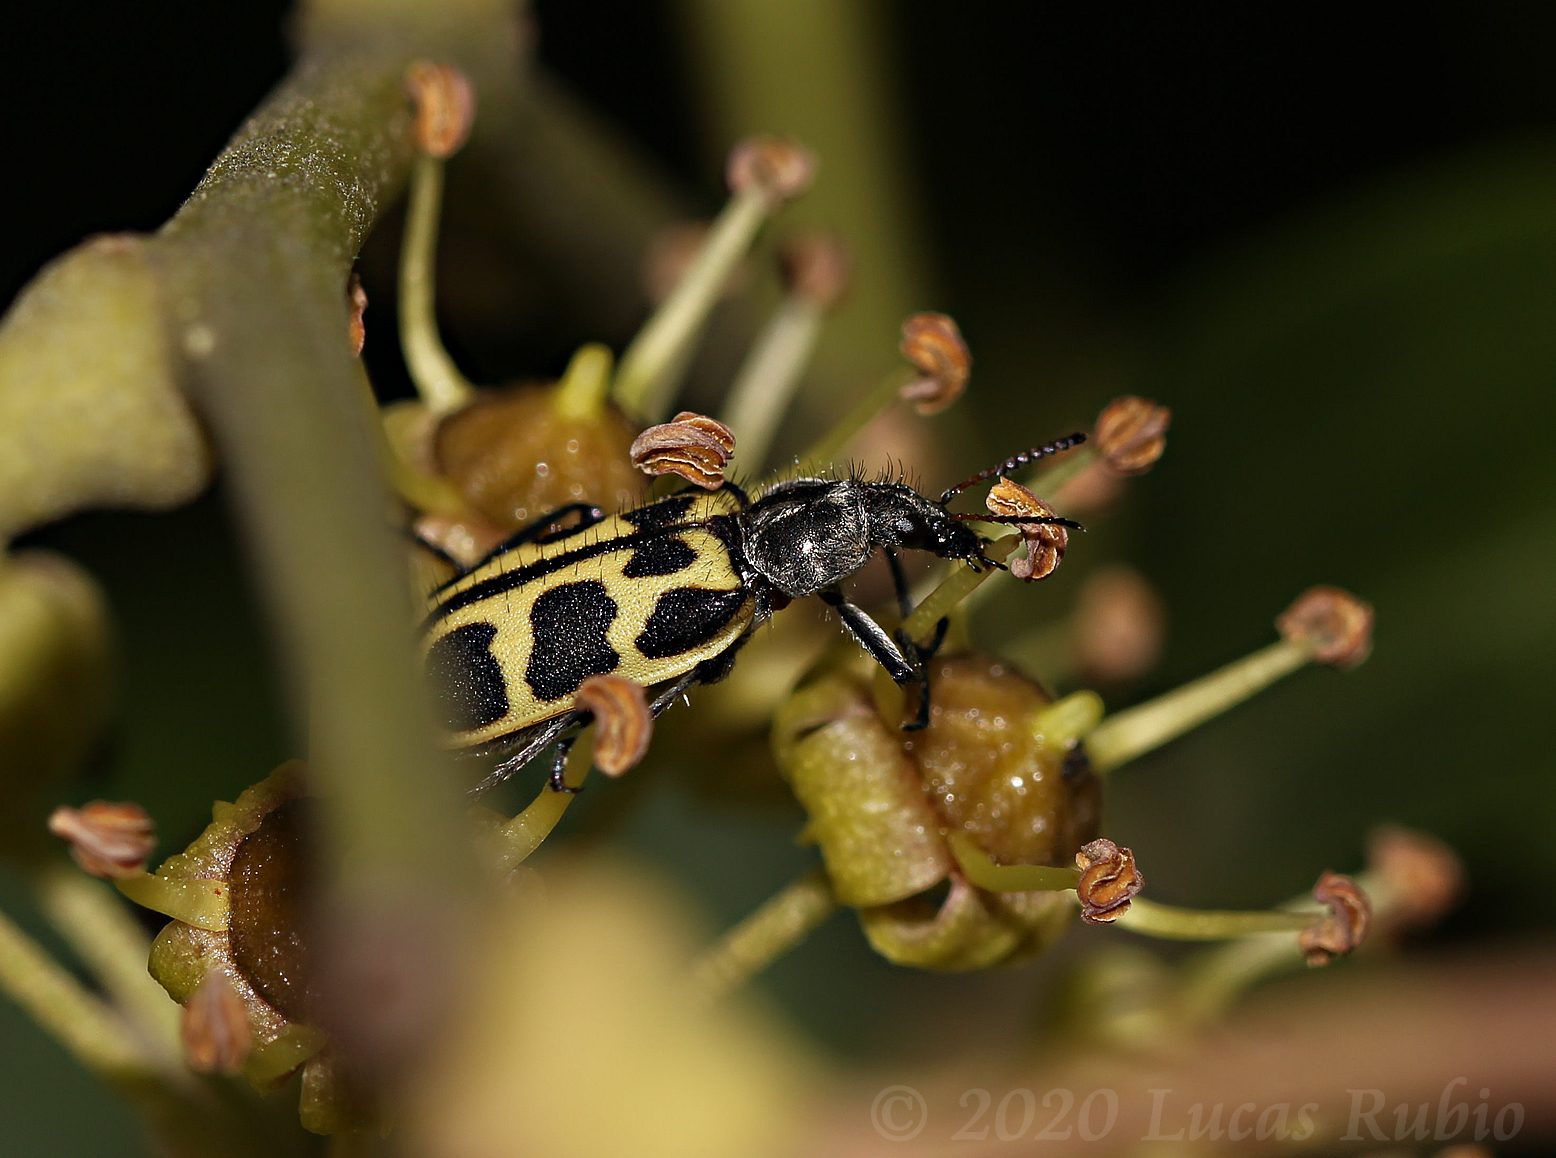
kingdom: Animalia
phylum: Arthropoda
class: Insecta
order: Coleoptera
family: Melyridae
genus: Astylus
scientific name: Astylus atromaculatus
